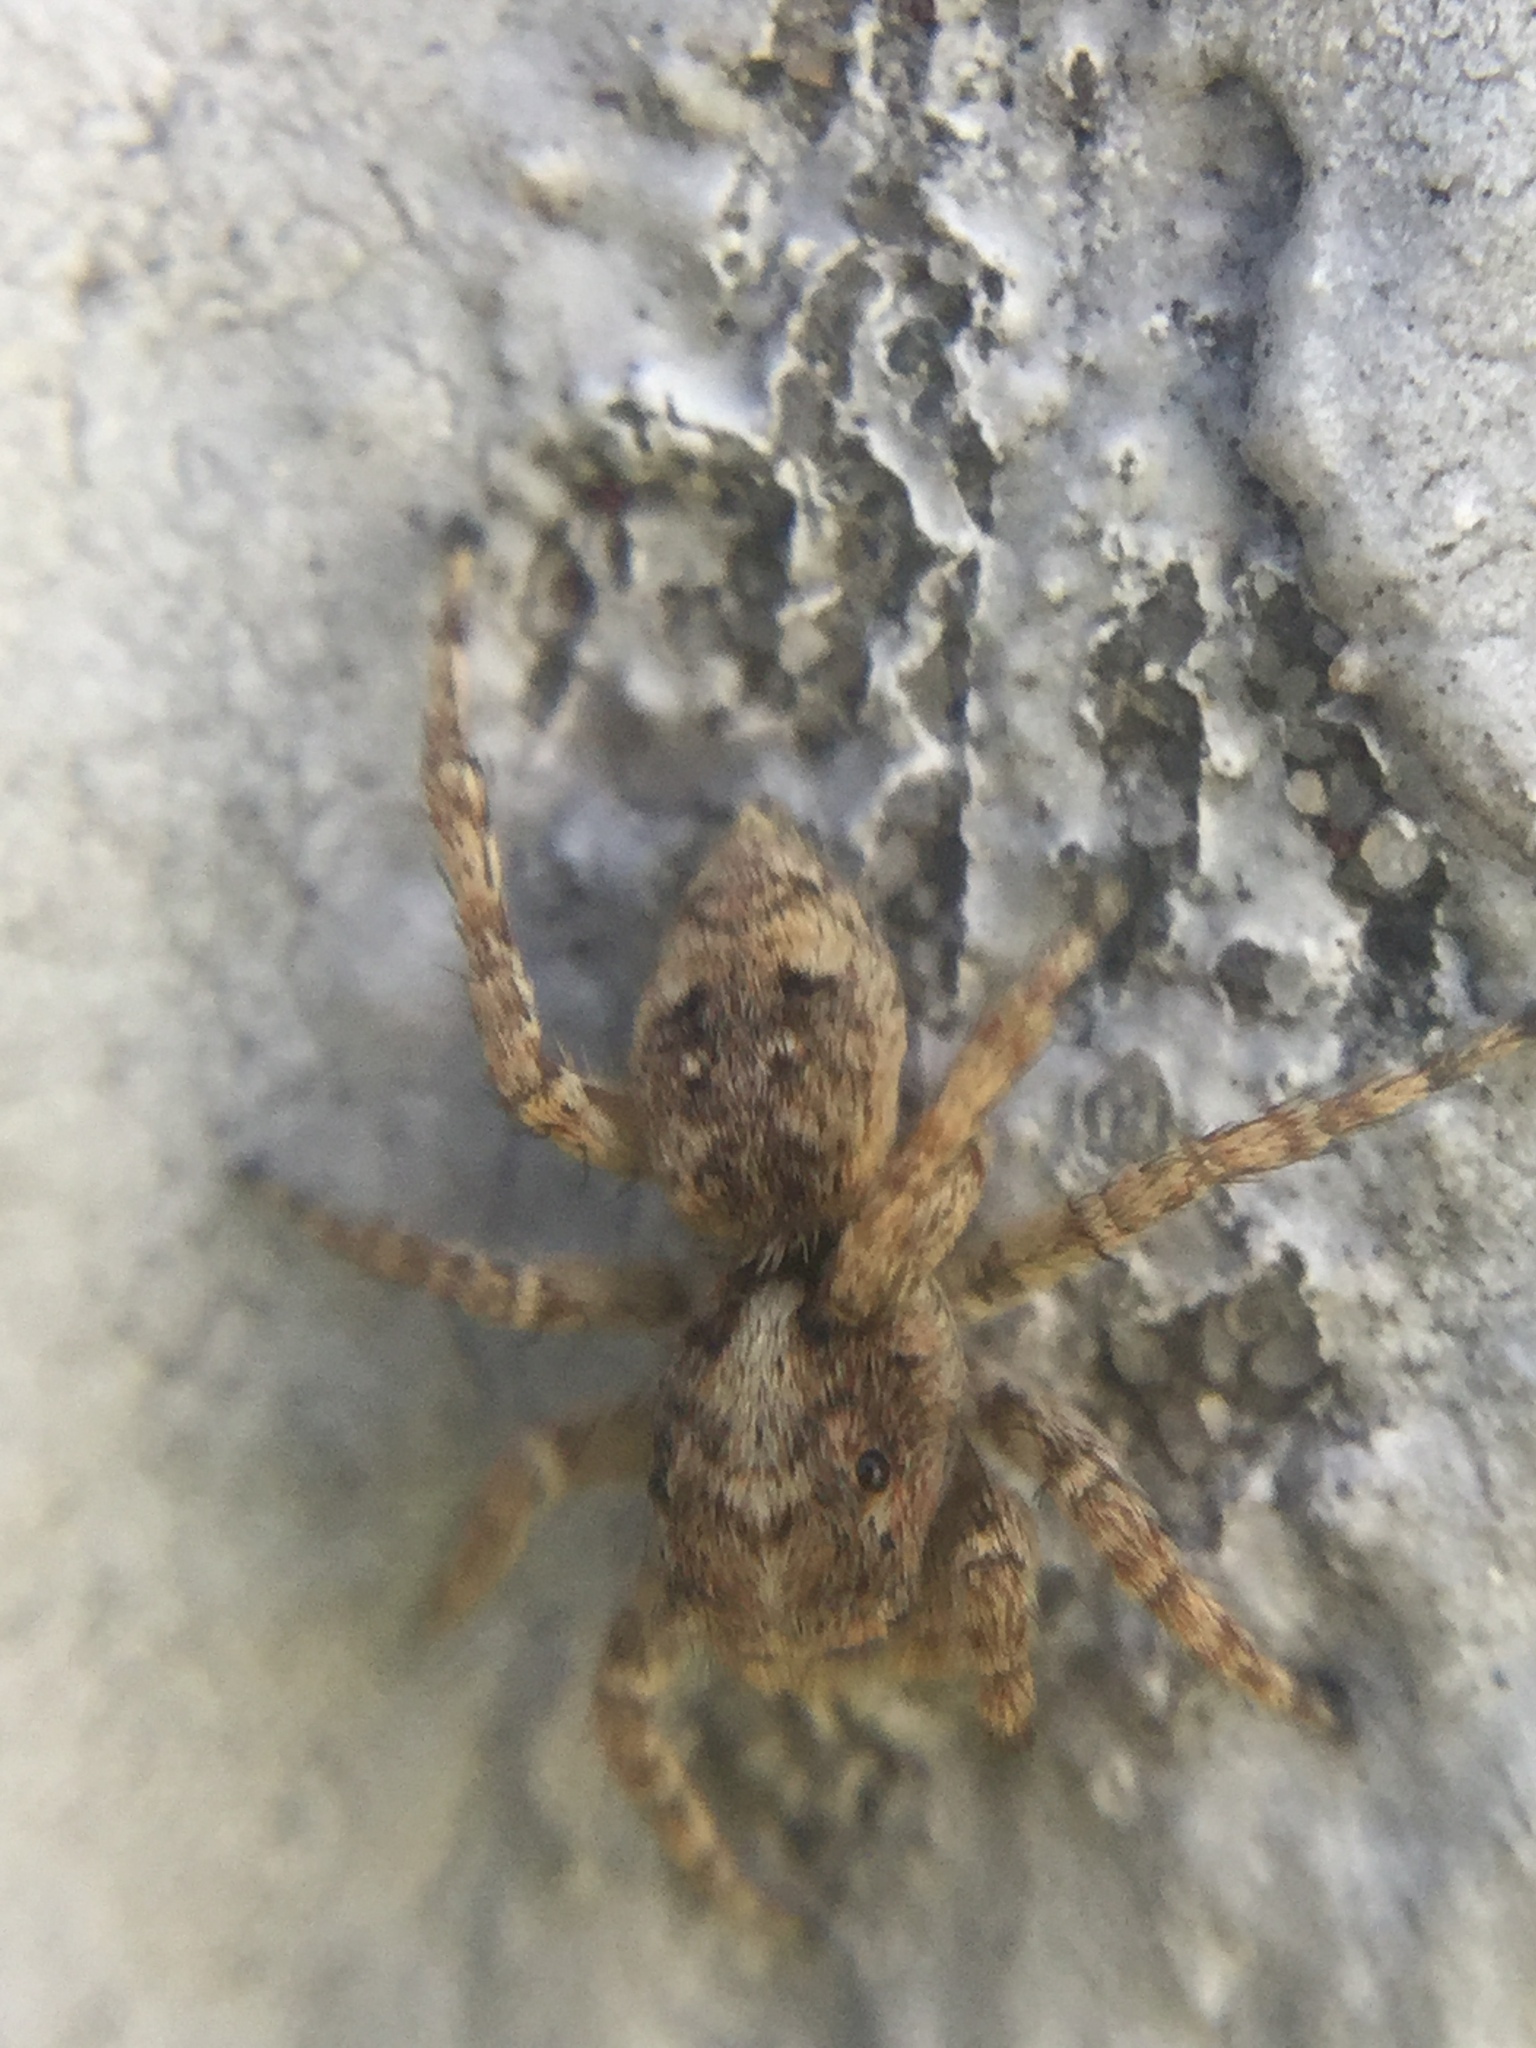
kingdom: Animalia
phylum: Arthropoda
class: Arachnida
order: Araneae
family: Salticidae
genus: Attulus
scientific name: Attulus fasciger
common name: Asiatic wall jumping spider
